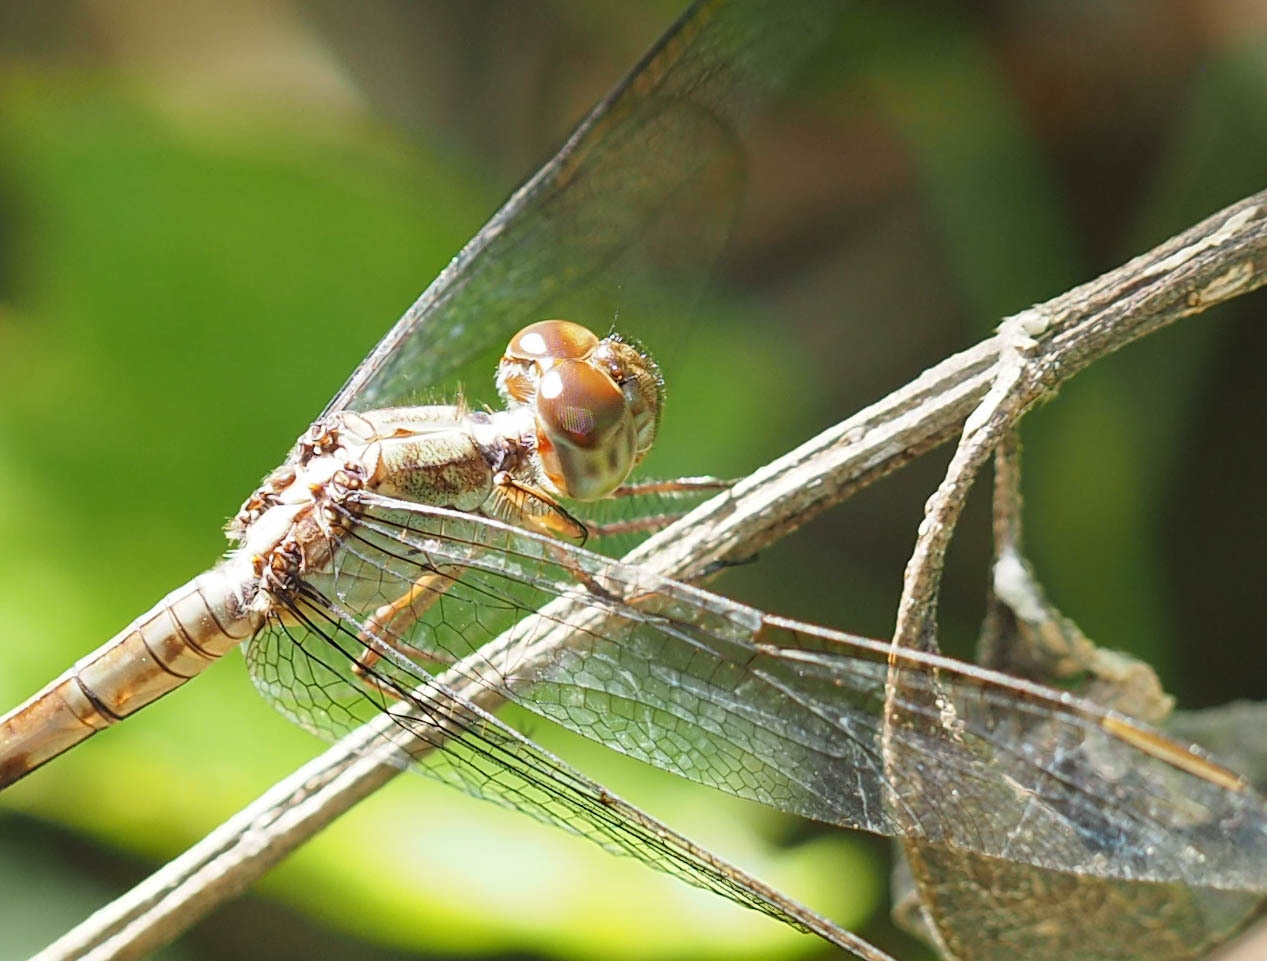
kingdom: Animalia
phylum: Arthropoda
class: Insecta
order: Odonata
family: Libellulidae
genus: Erythrodiplax
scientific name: Erythrodiplax umbrata
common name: Band-winged dragonlet
